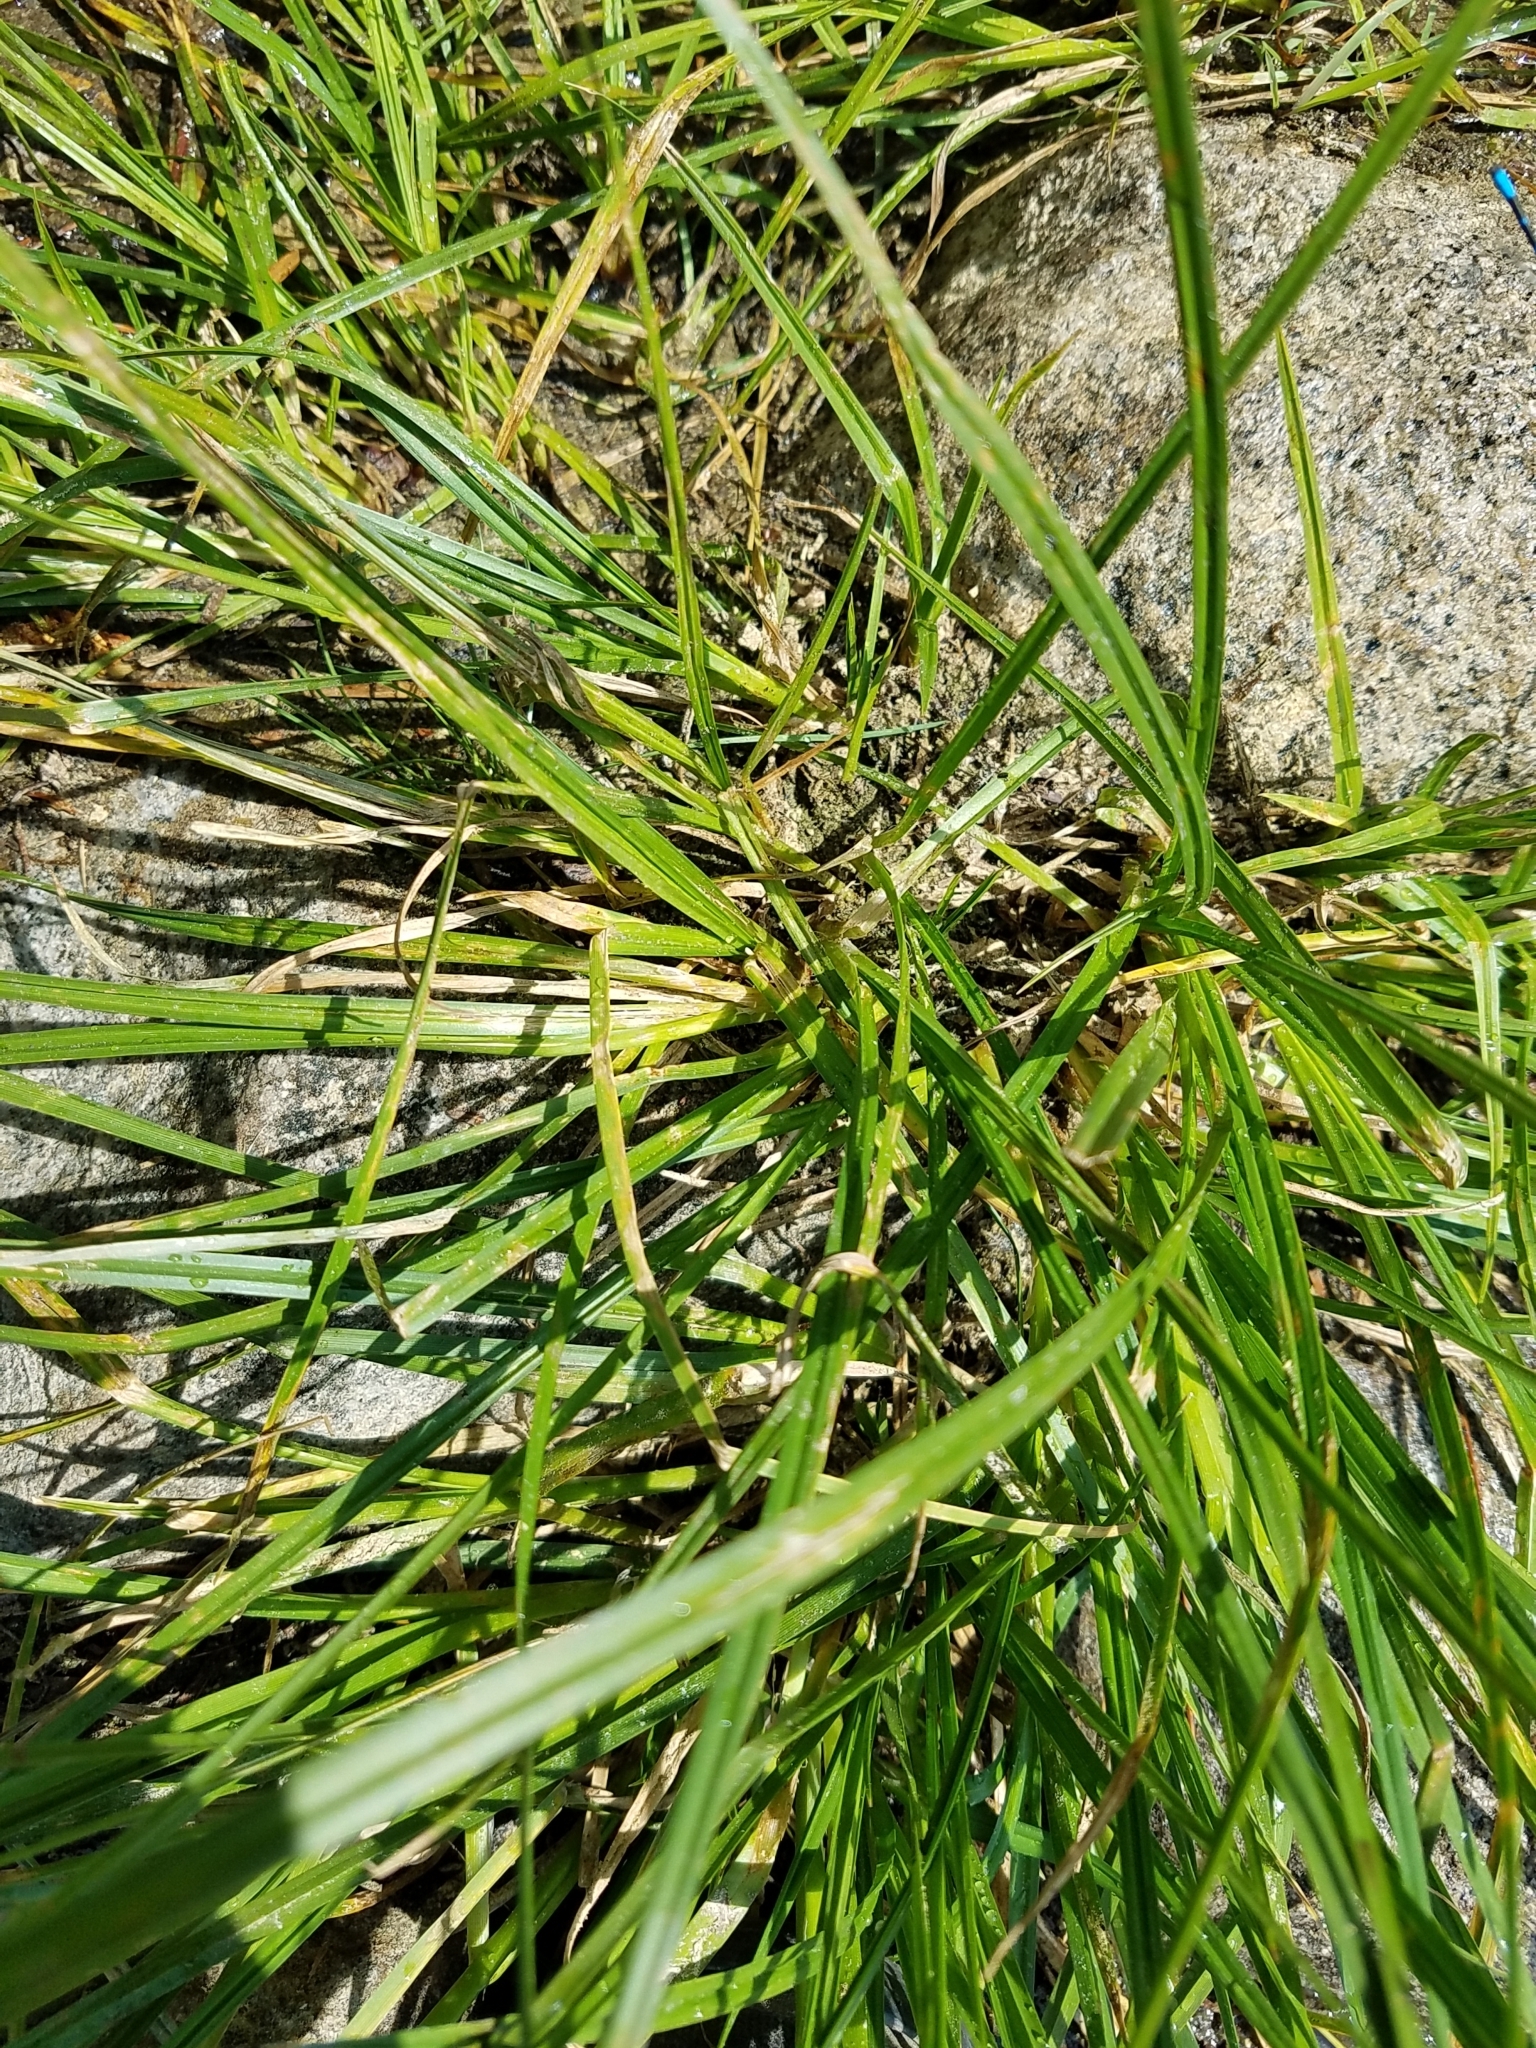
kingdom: Plantae
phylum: Tracheophyta
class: Liliopsida
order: Poales
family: Cyperaceae
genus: Carex
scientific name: Carex vesicaria
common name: Bladder-sedge
